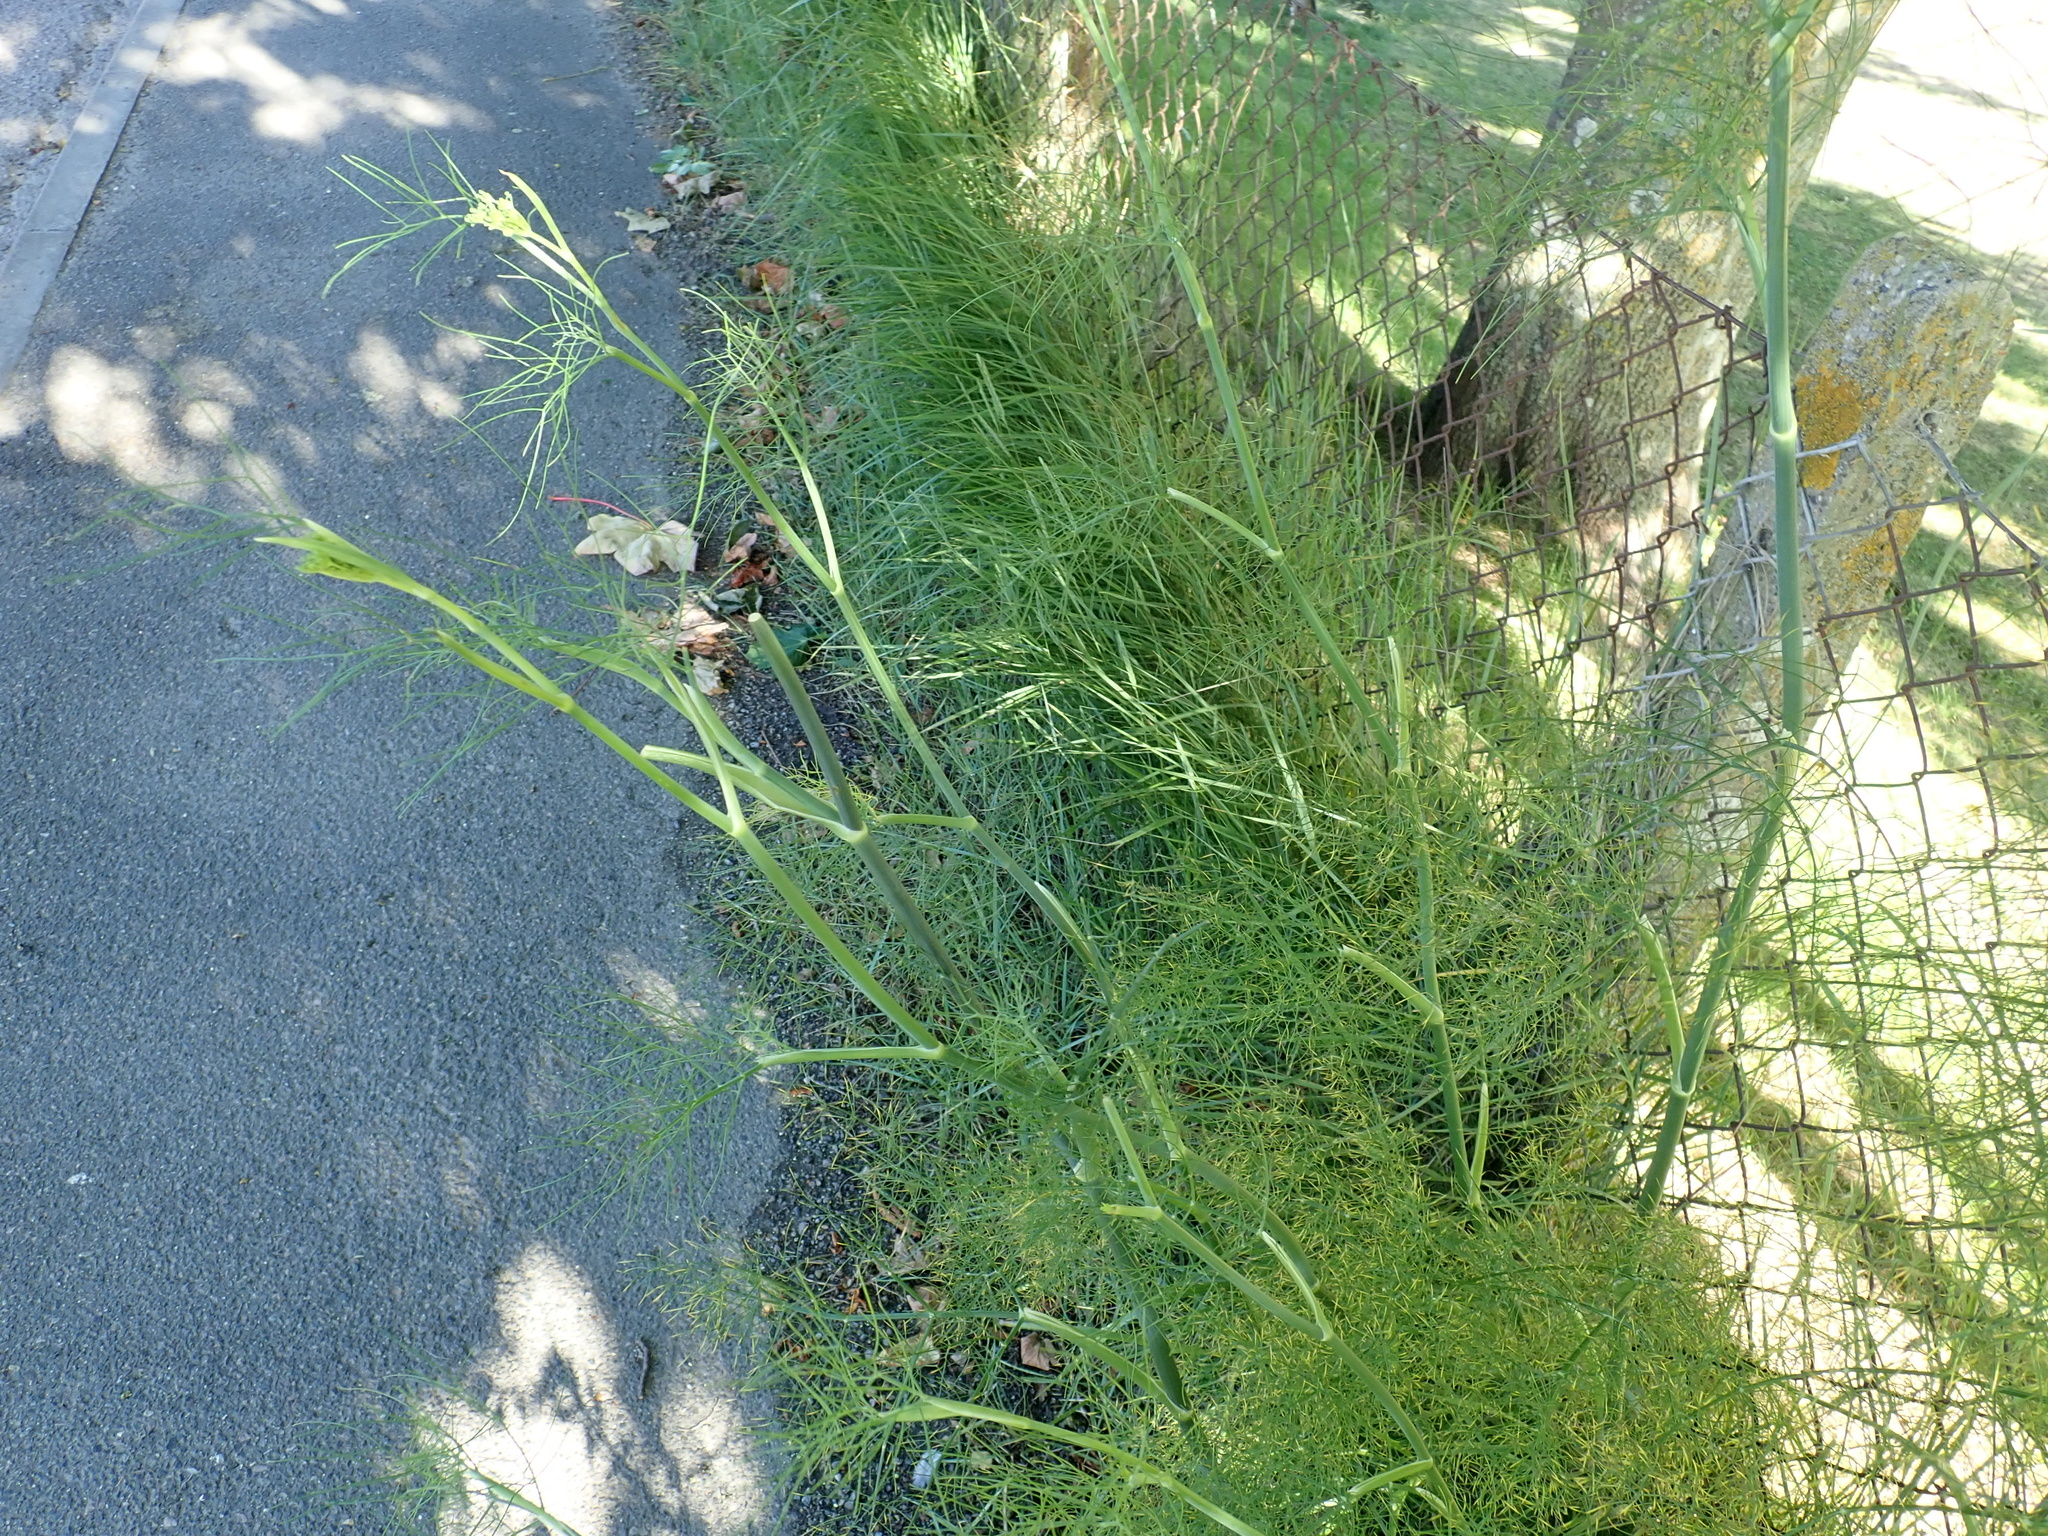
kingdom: Plantae
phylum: Tracheophyta
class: Magnoliopsida
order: Apiales
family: Apiaceae
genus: Foeniculum
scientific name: Foeniculum vulgare
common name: Fennel
